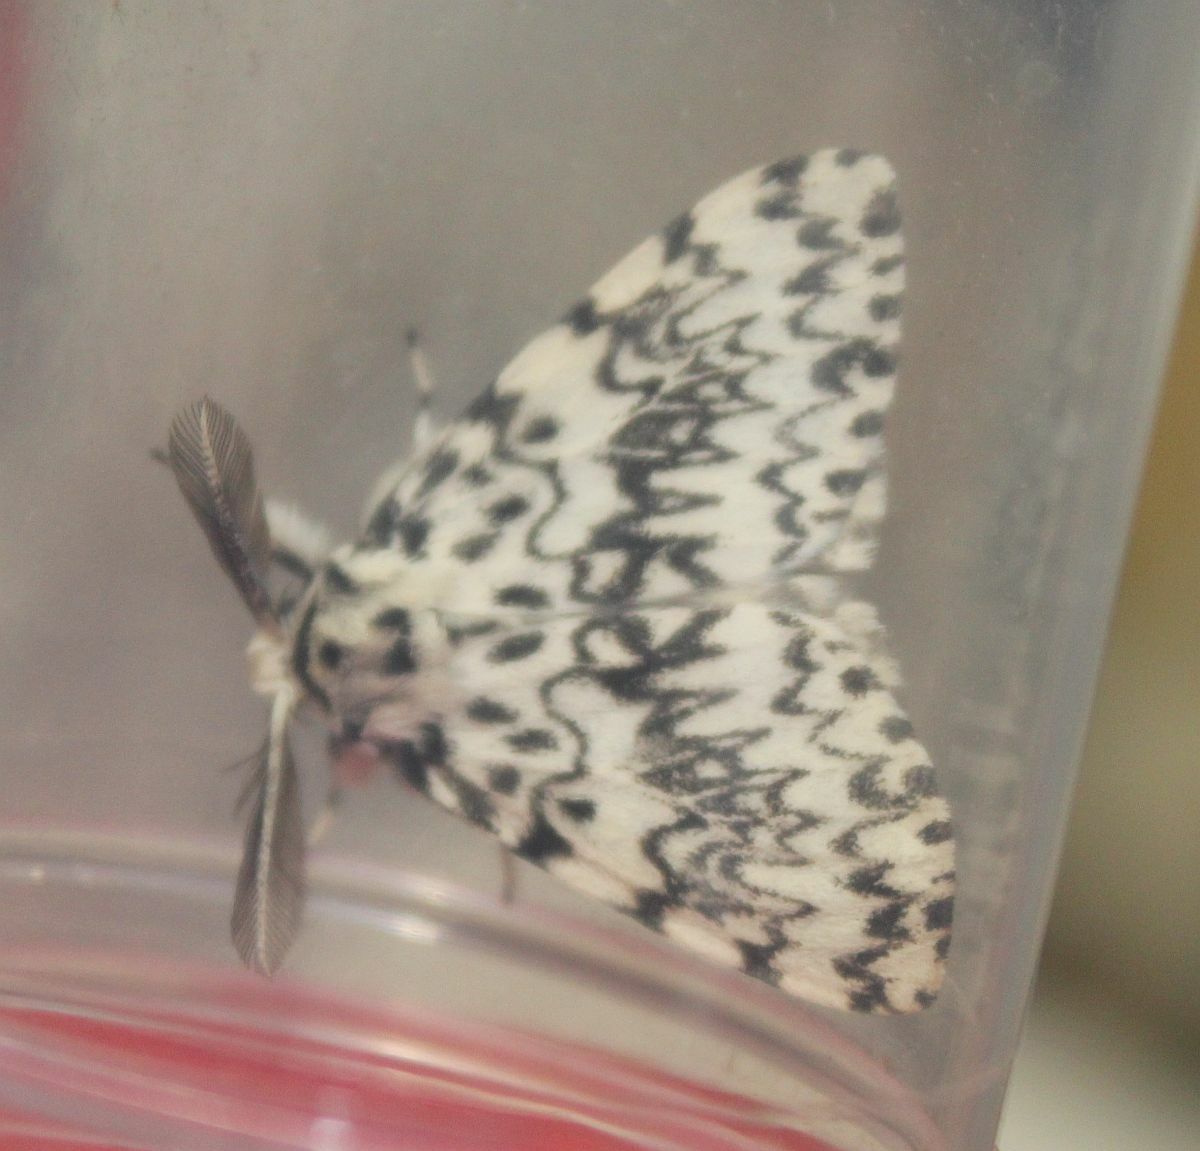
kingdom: Animalia
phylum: Arthropoda
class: Insecta
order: Lepidoptera
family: Erebidae
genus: Lymantria
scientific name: Lymantria monacha
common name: Black arches
